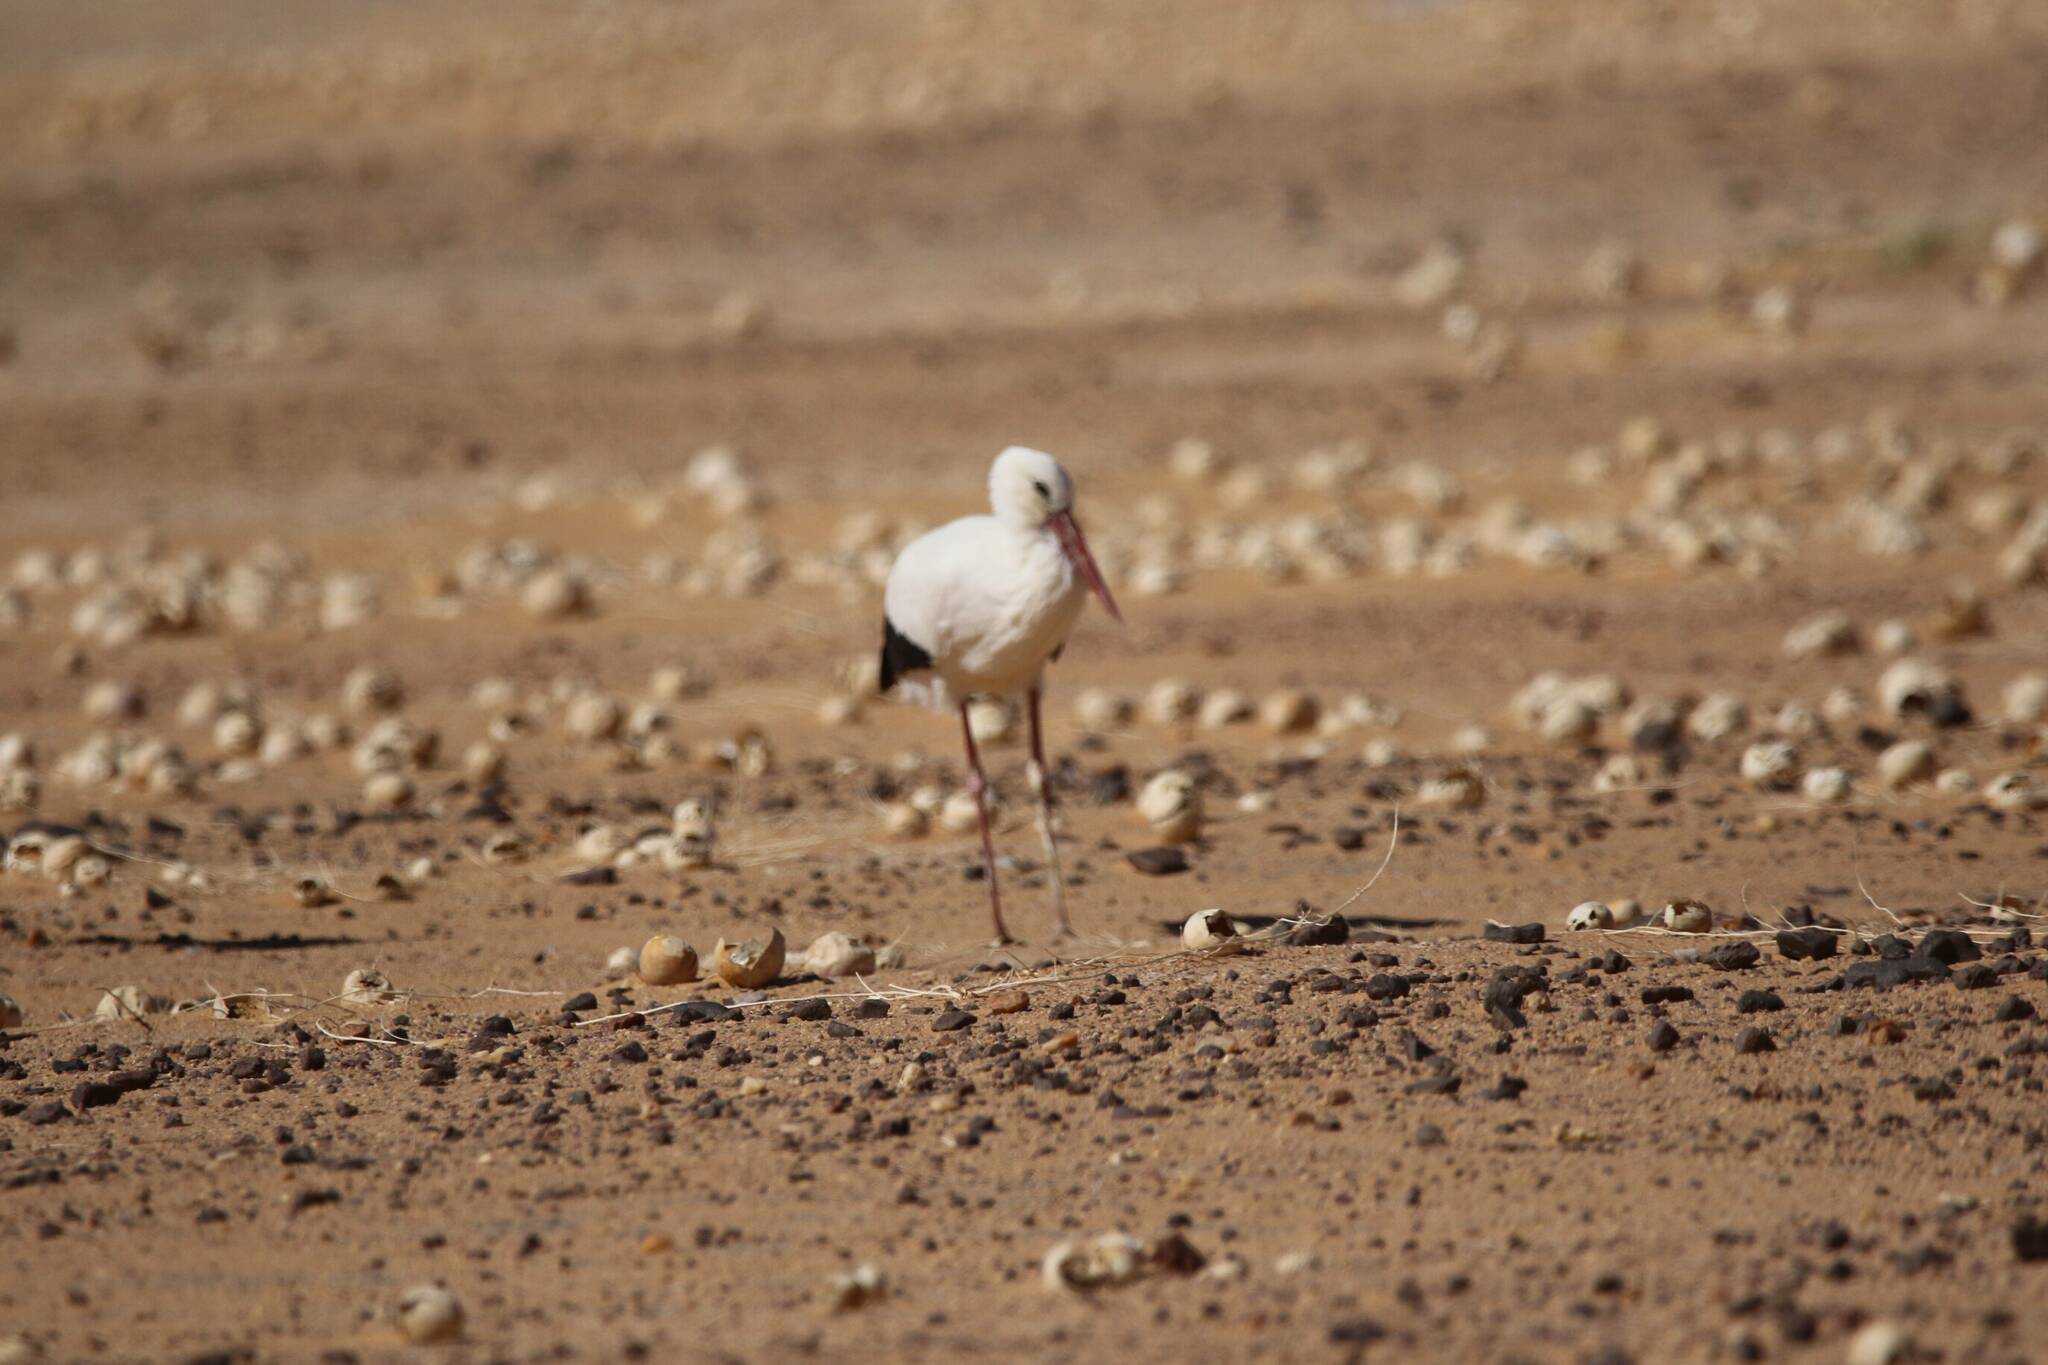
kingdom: Animalia
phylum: Chordata
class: Aves
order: Ciconiiformes
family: Ciconiidae
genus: Ciconia
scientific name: Ciconia ciconia
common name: White stork
